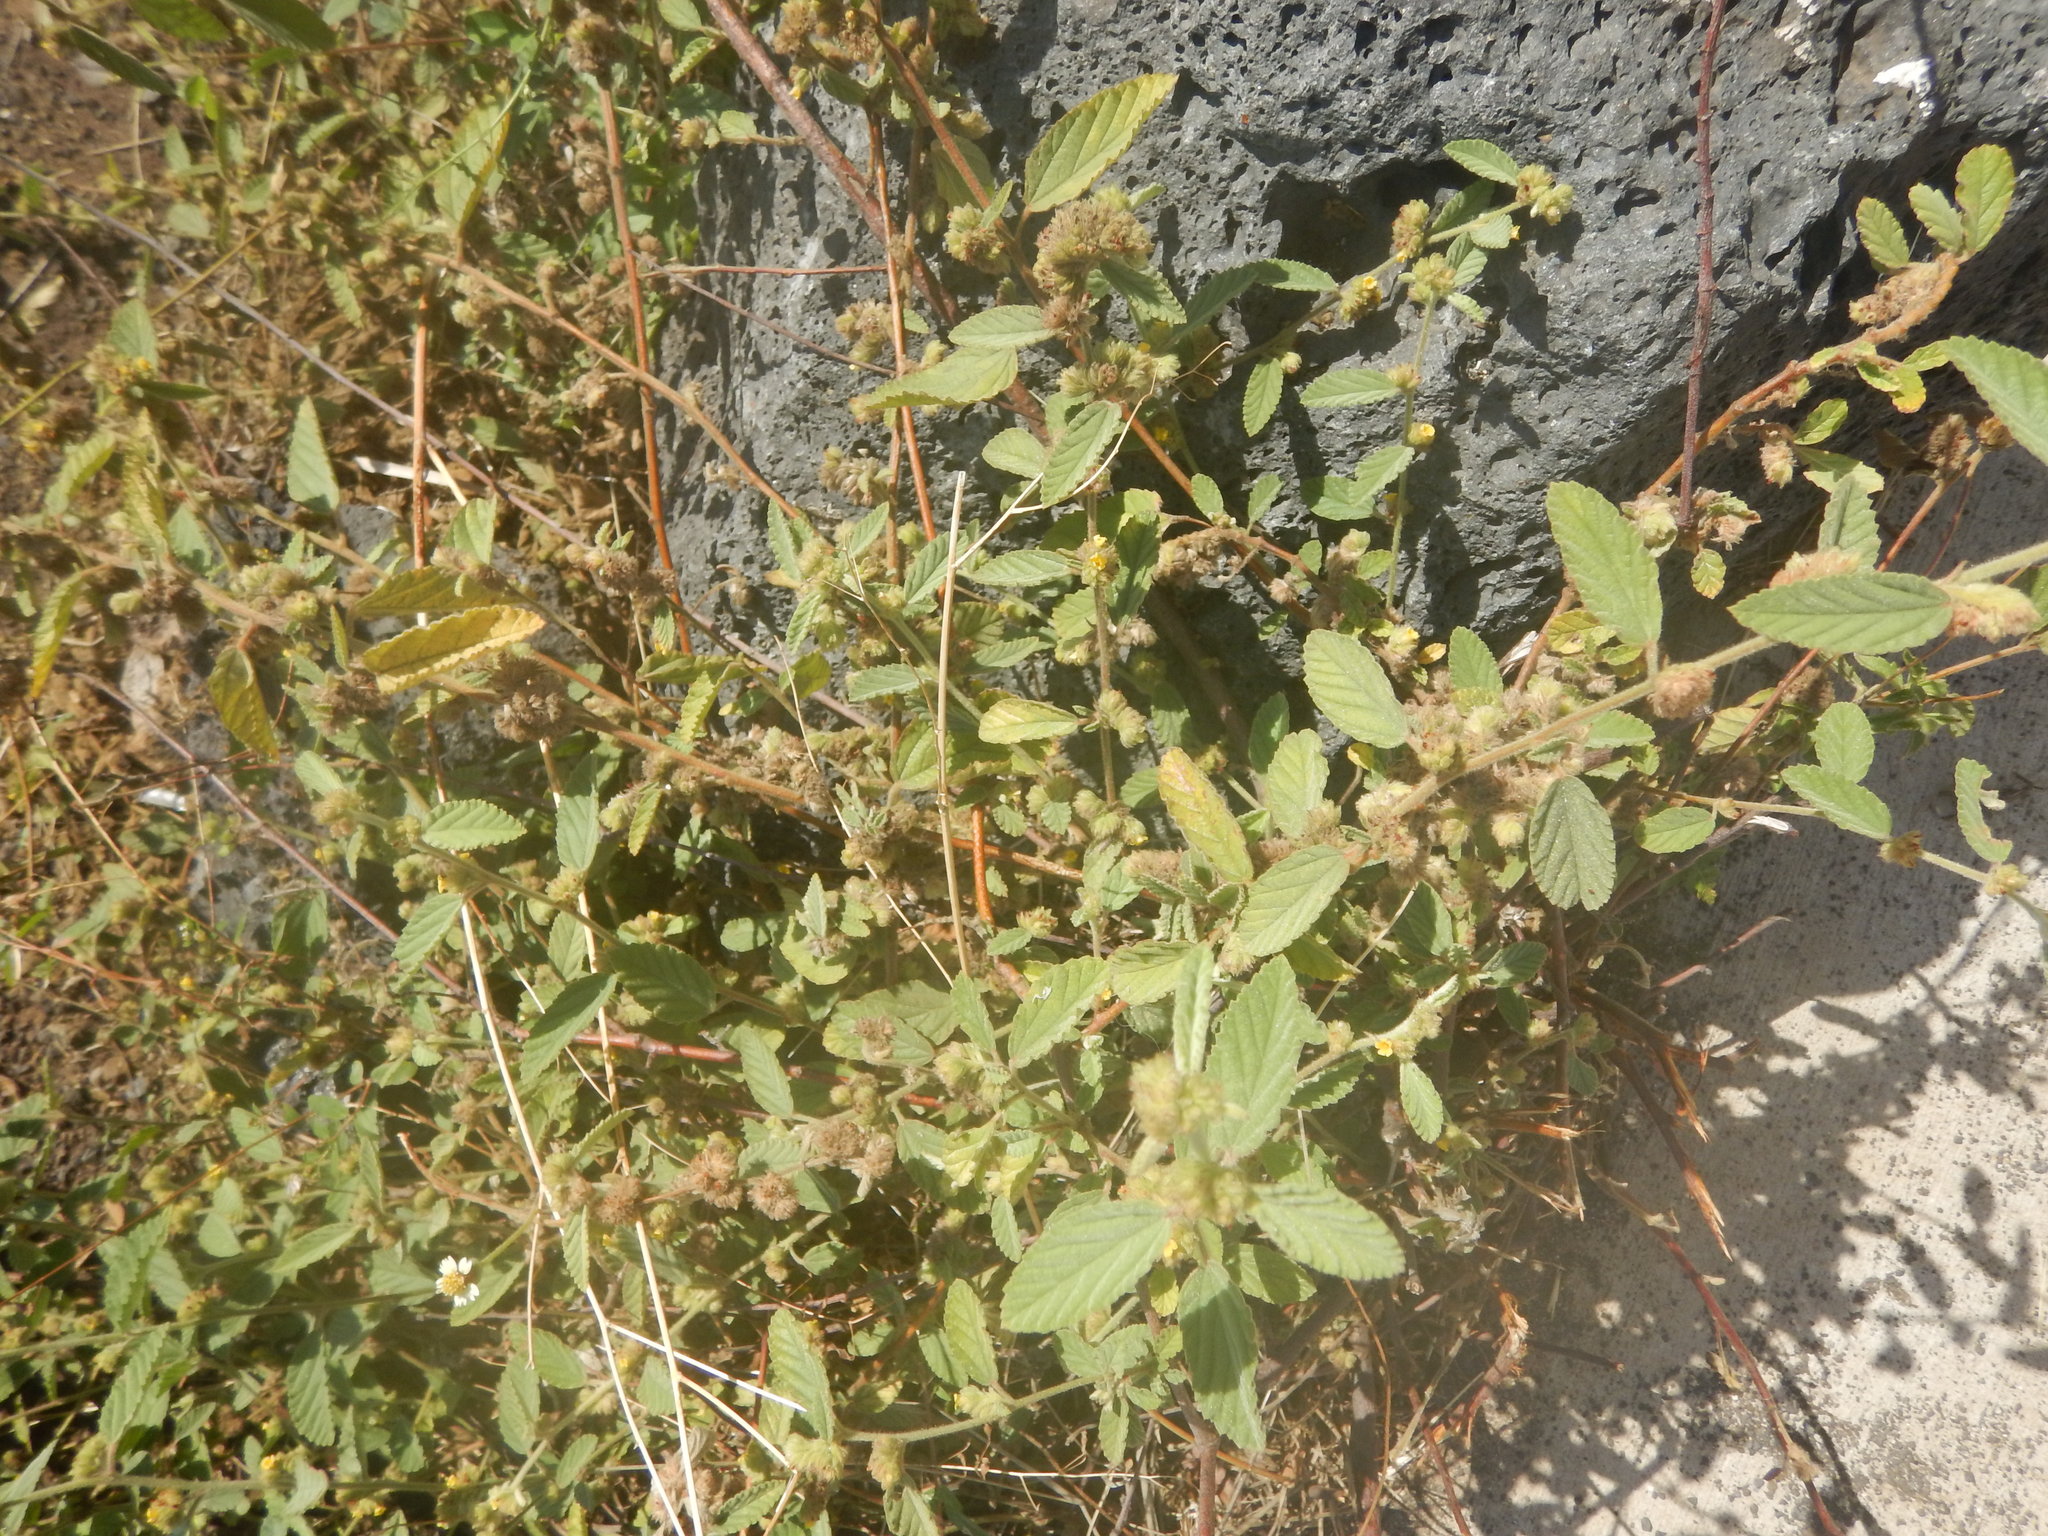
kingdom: Plantae
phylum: Tracheophyta
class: Magnoliopsida
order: Malvales
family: Malvaceae
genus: Waltheria
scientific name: Waltheria indica
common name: Leather-coat
